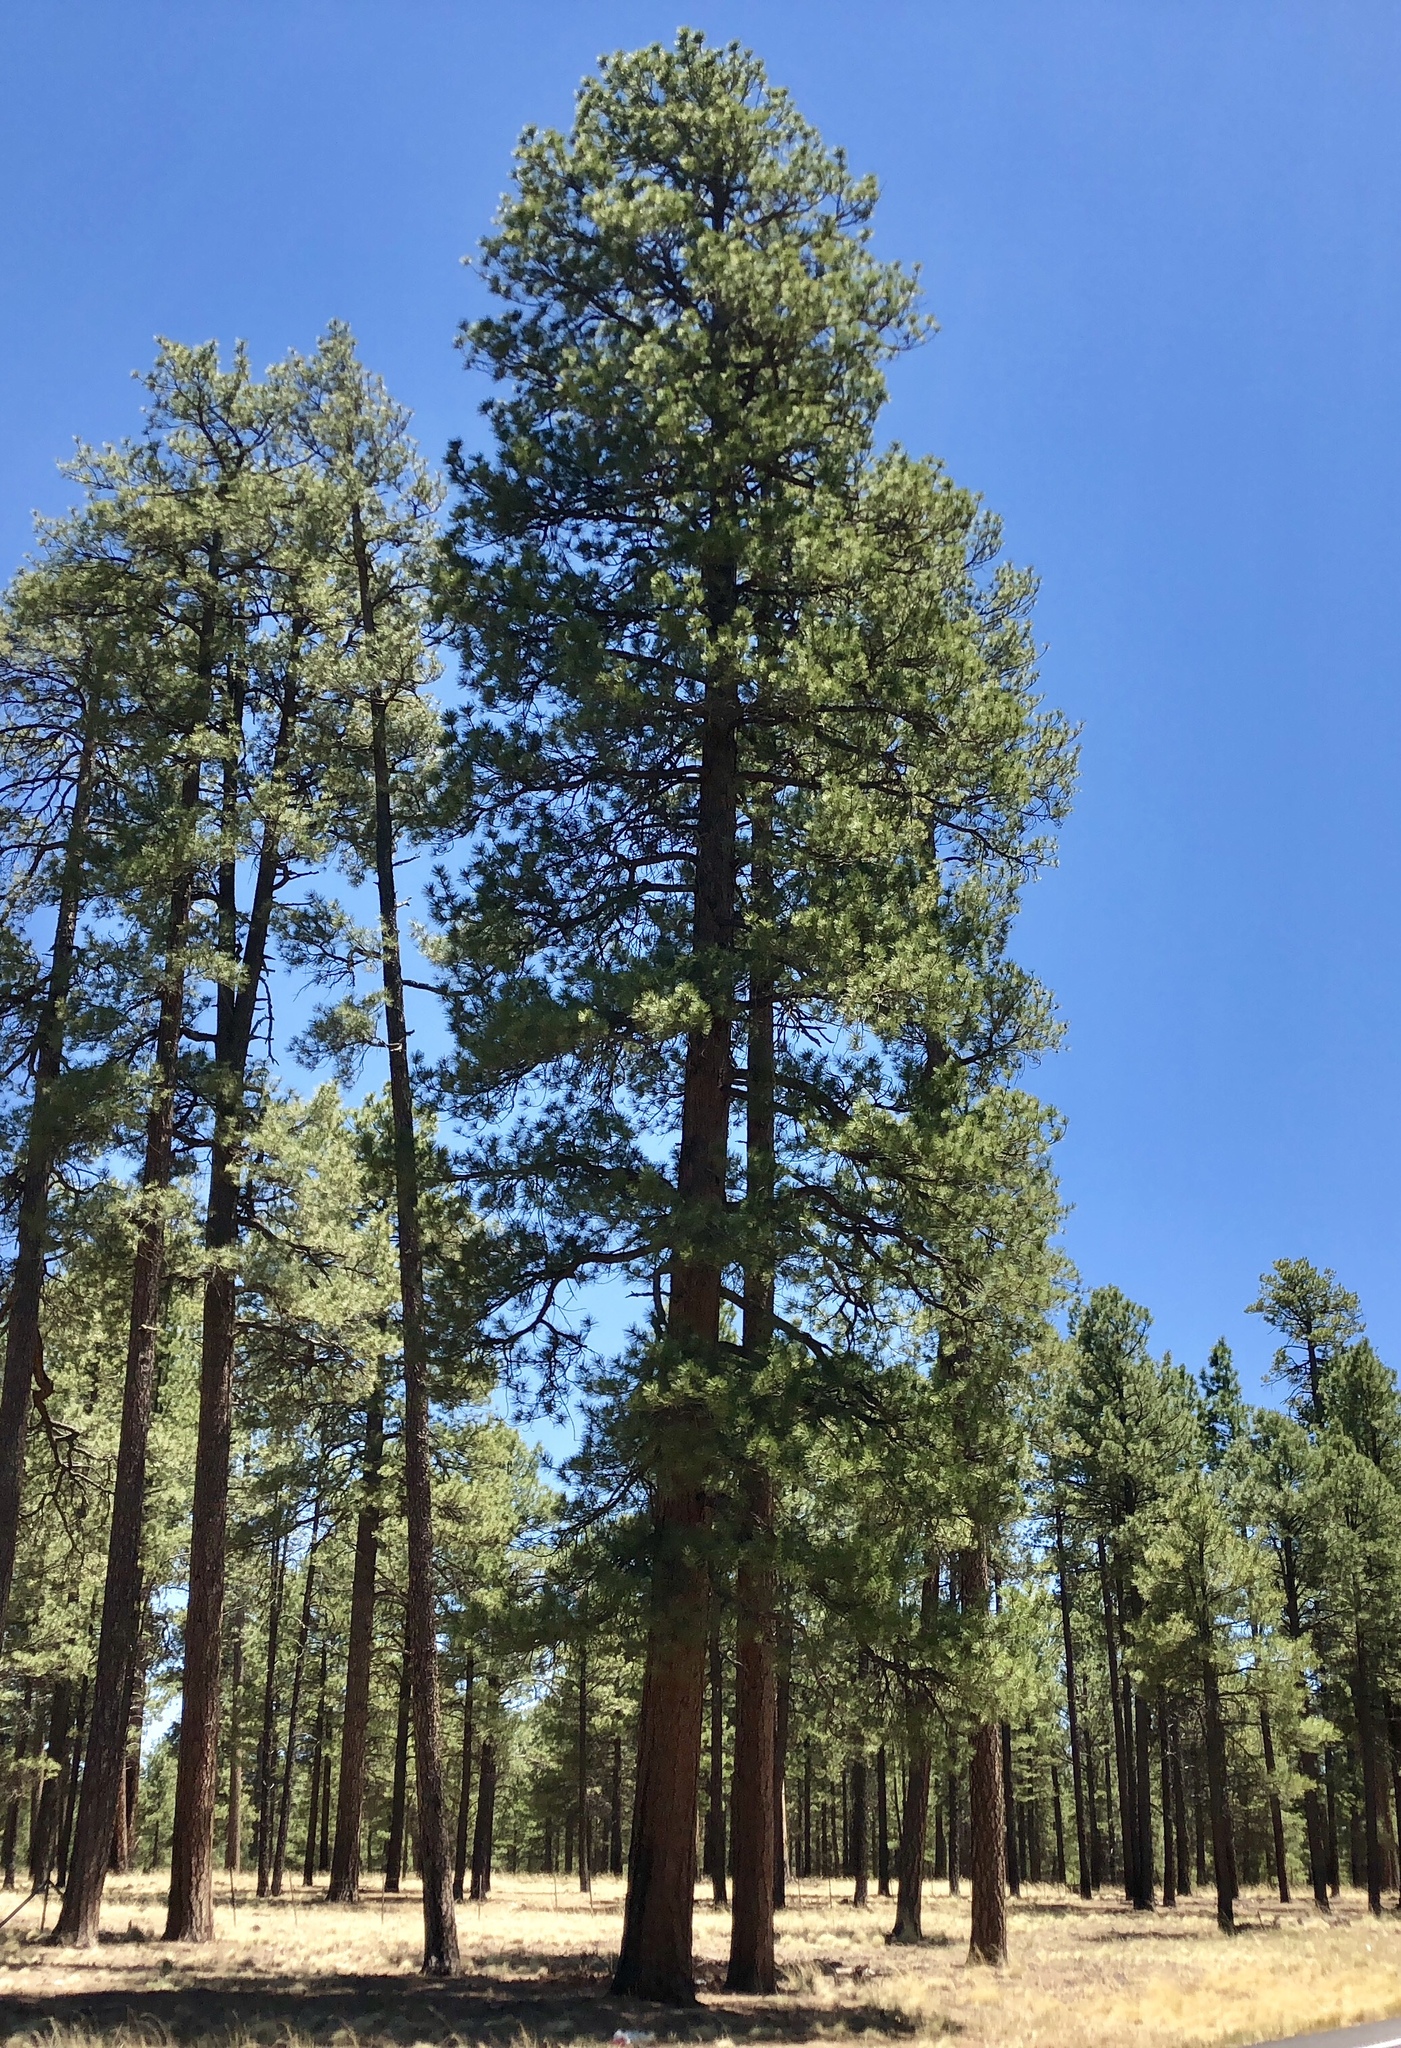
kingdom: Plantae
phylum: Tracheophyta
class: Pinopsida
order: Pinales
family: Pinaceae
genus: Pinus
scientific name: Pinus ponderosa
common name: Western yellow-pine
